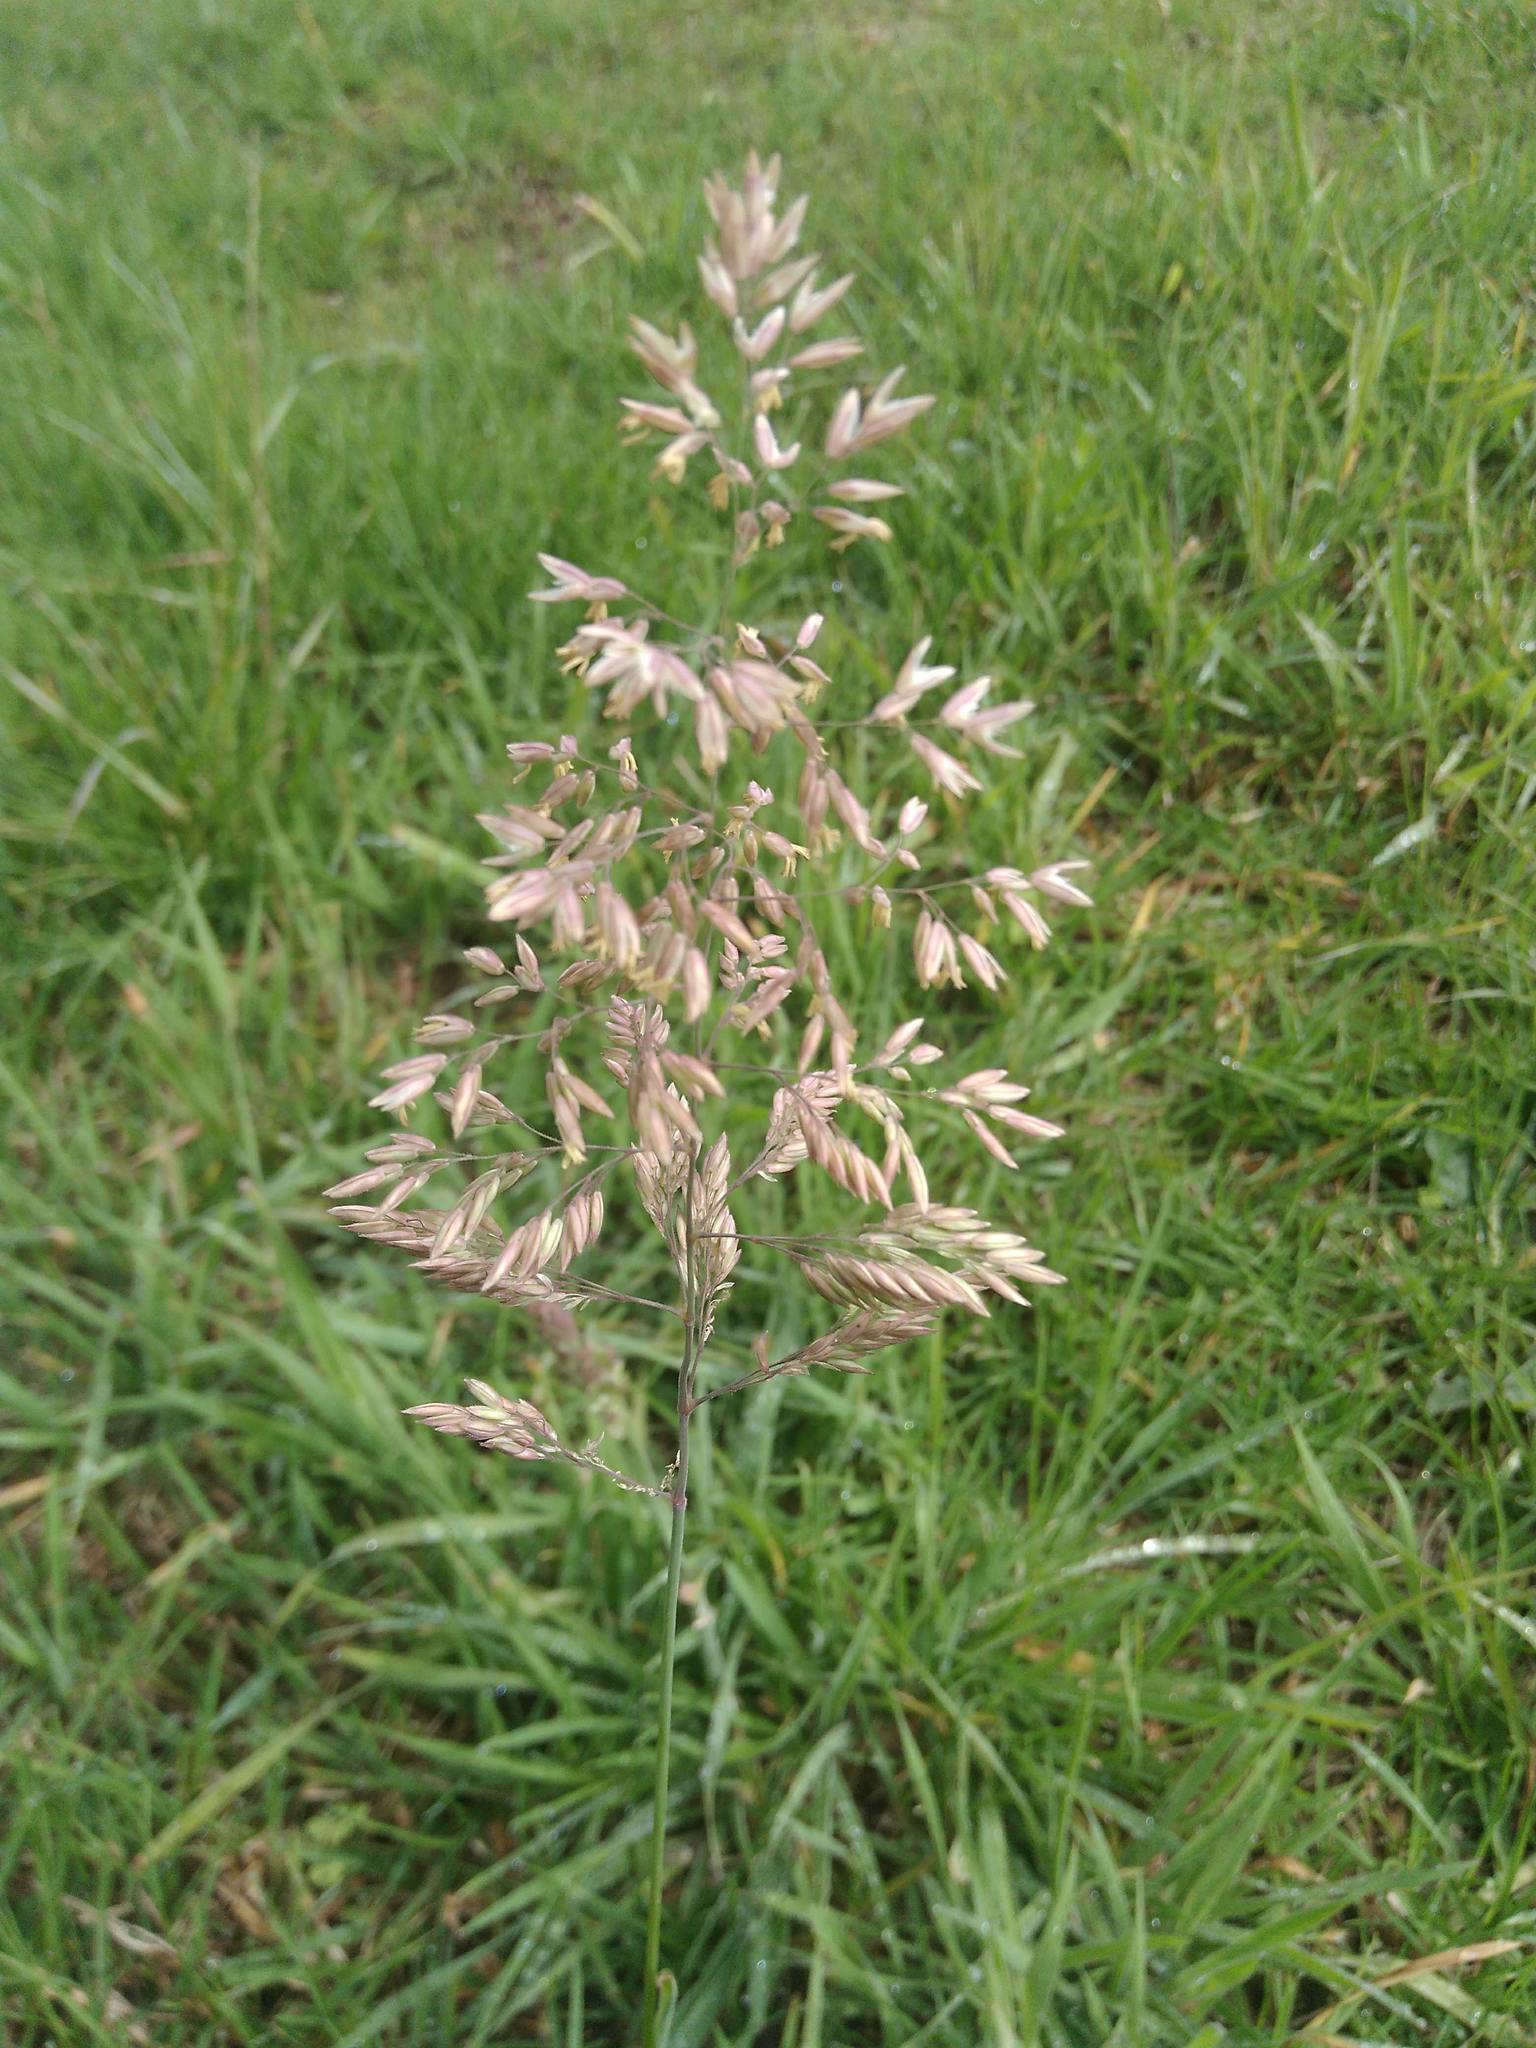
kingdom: Plantae
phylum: Tracheophyta
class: Liliopsida
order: Poales
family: Poaceae
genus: Holcus
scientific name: Holcus lanatus
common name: Yorkshire-fog
